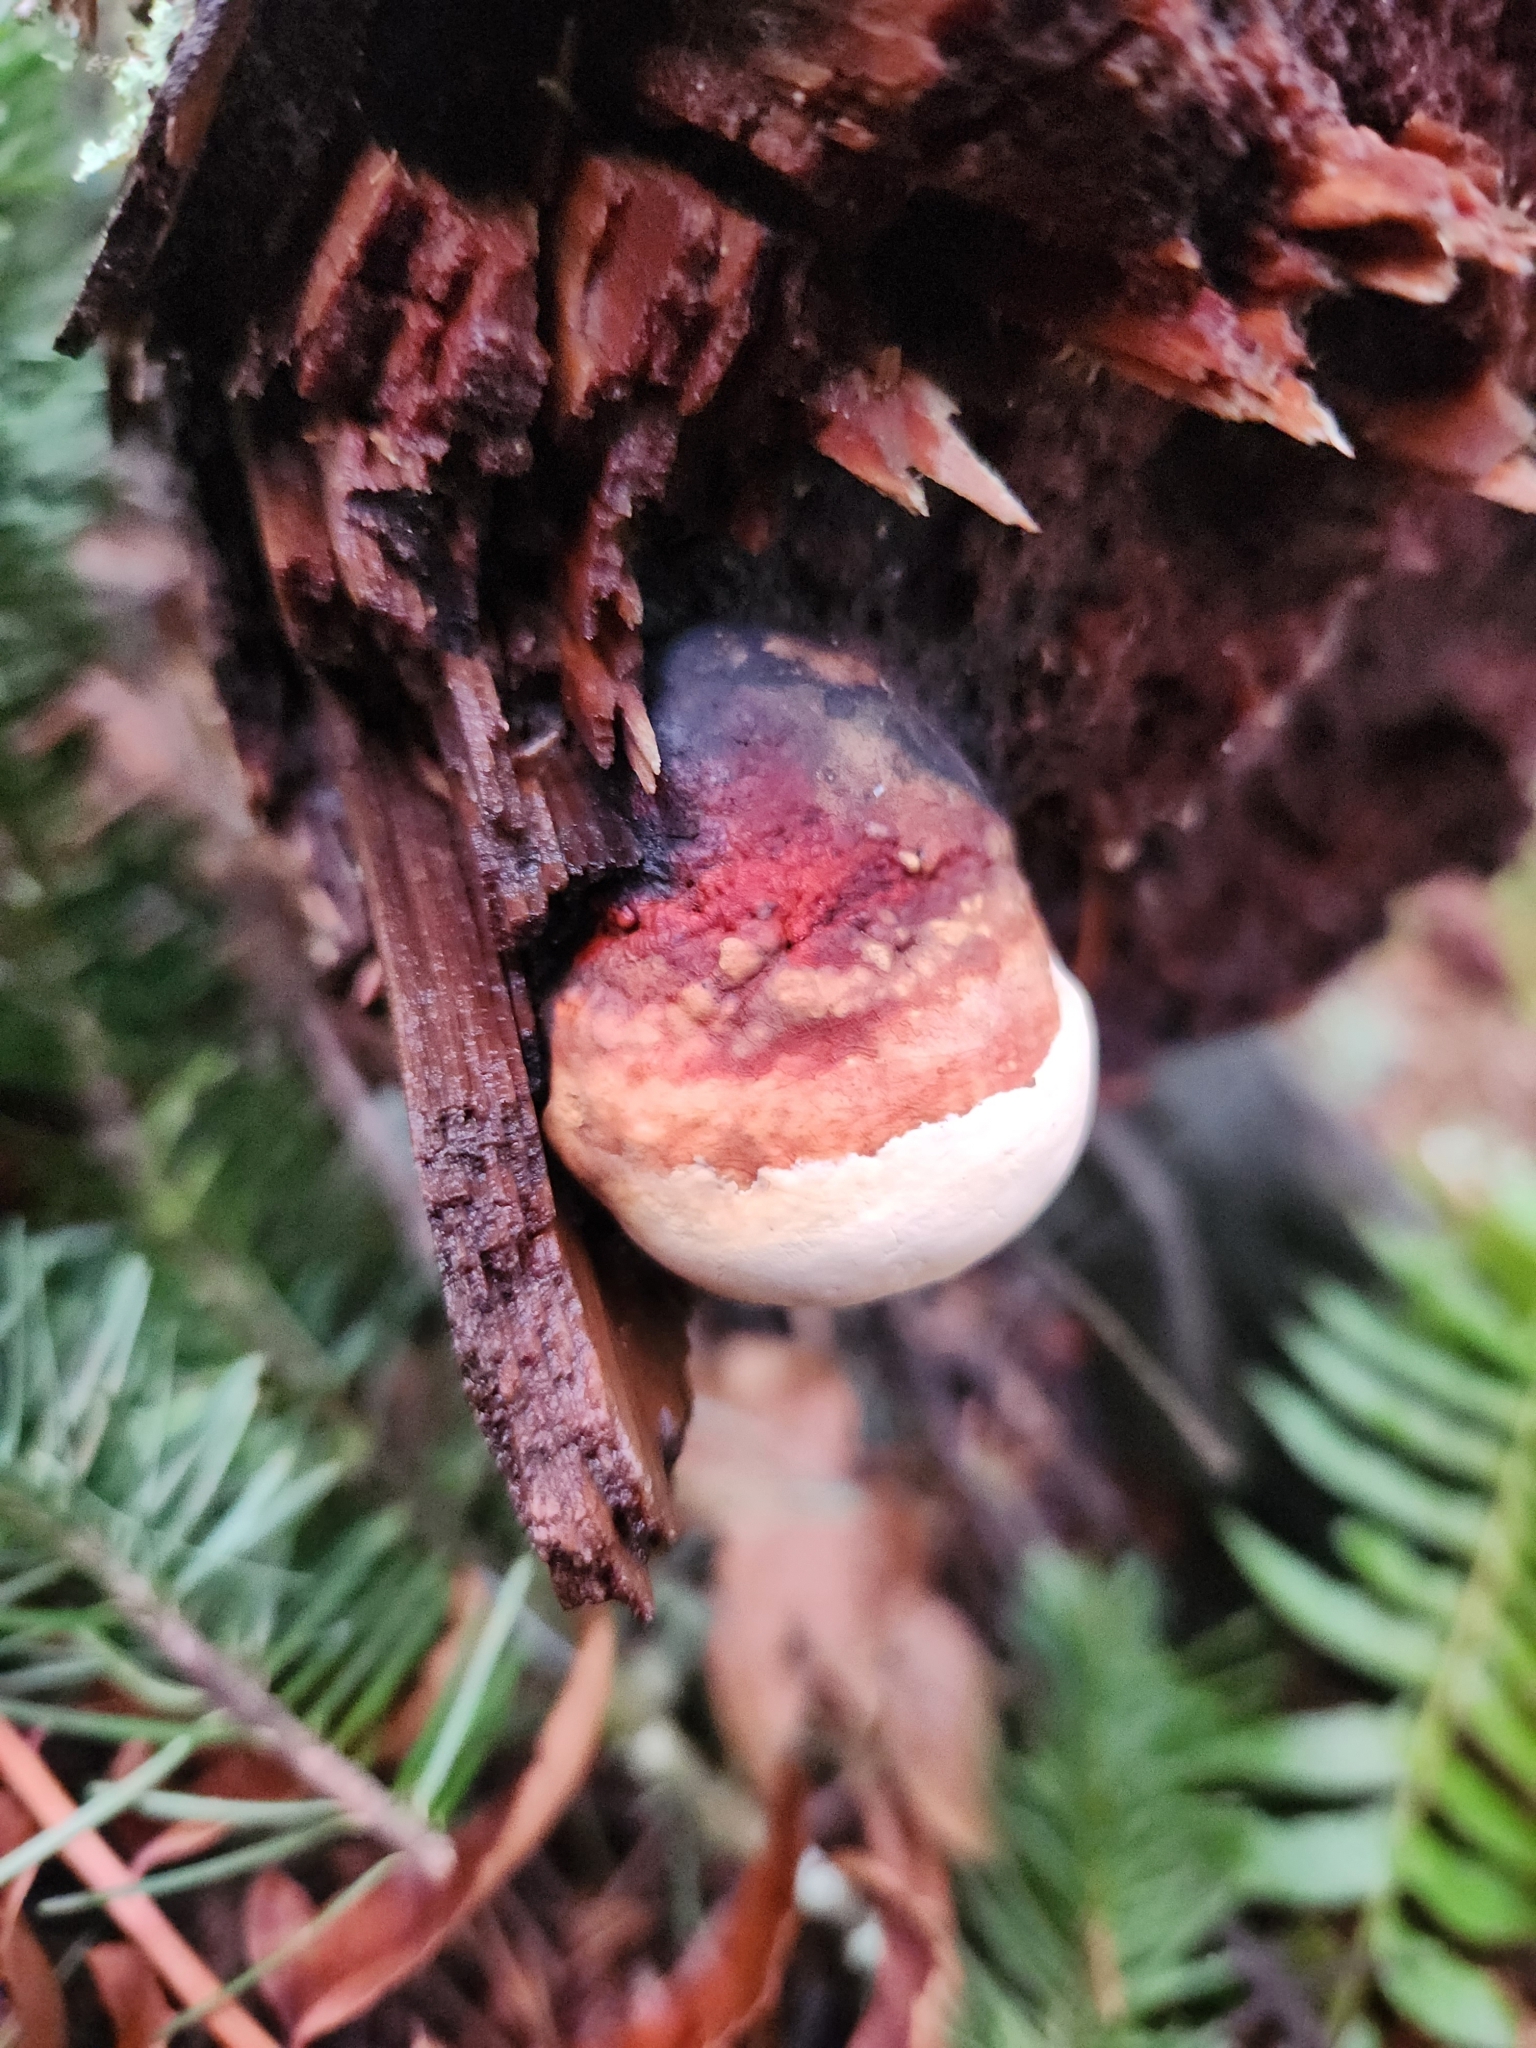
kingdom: Fungi
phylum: Basidiomycota
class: Agaricomycetes
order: Polyporales
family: Fomitopsidaceae
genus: Fomitopsis
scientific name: Fomitopsis mounceae
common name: Northern red belt
